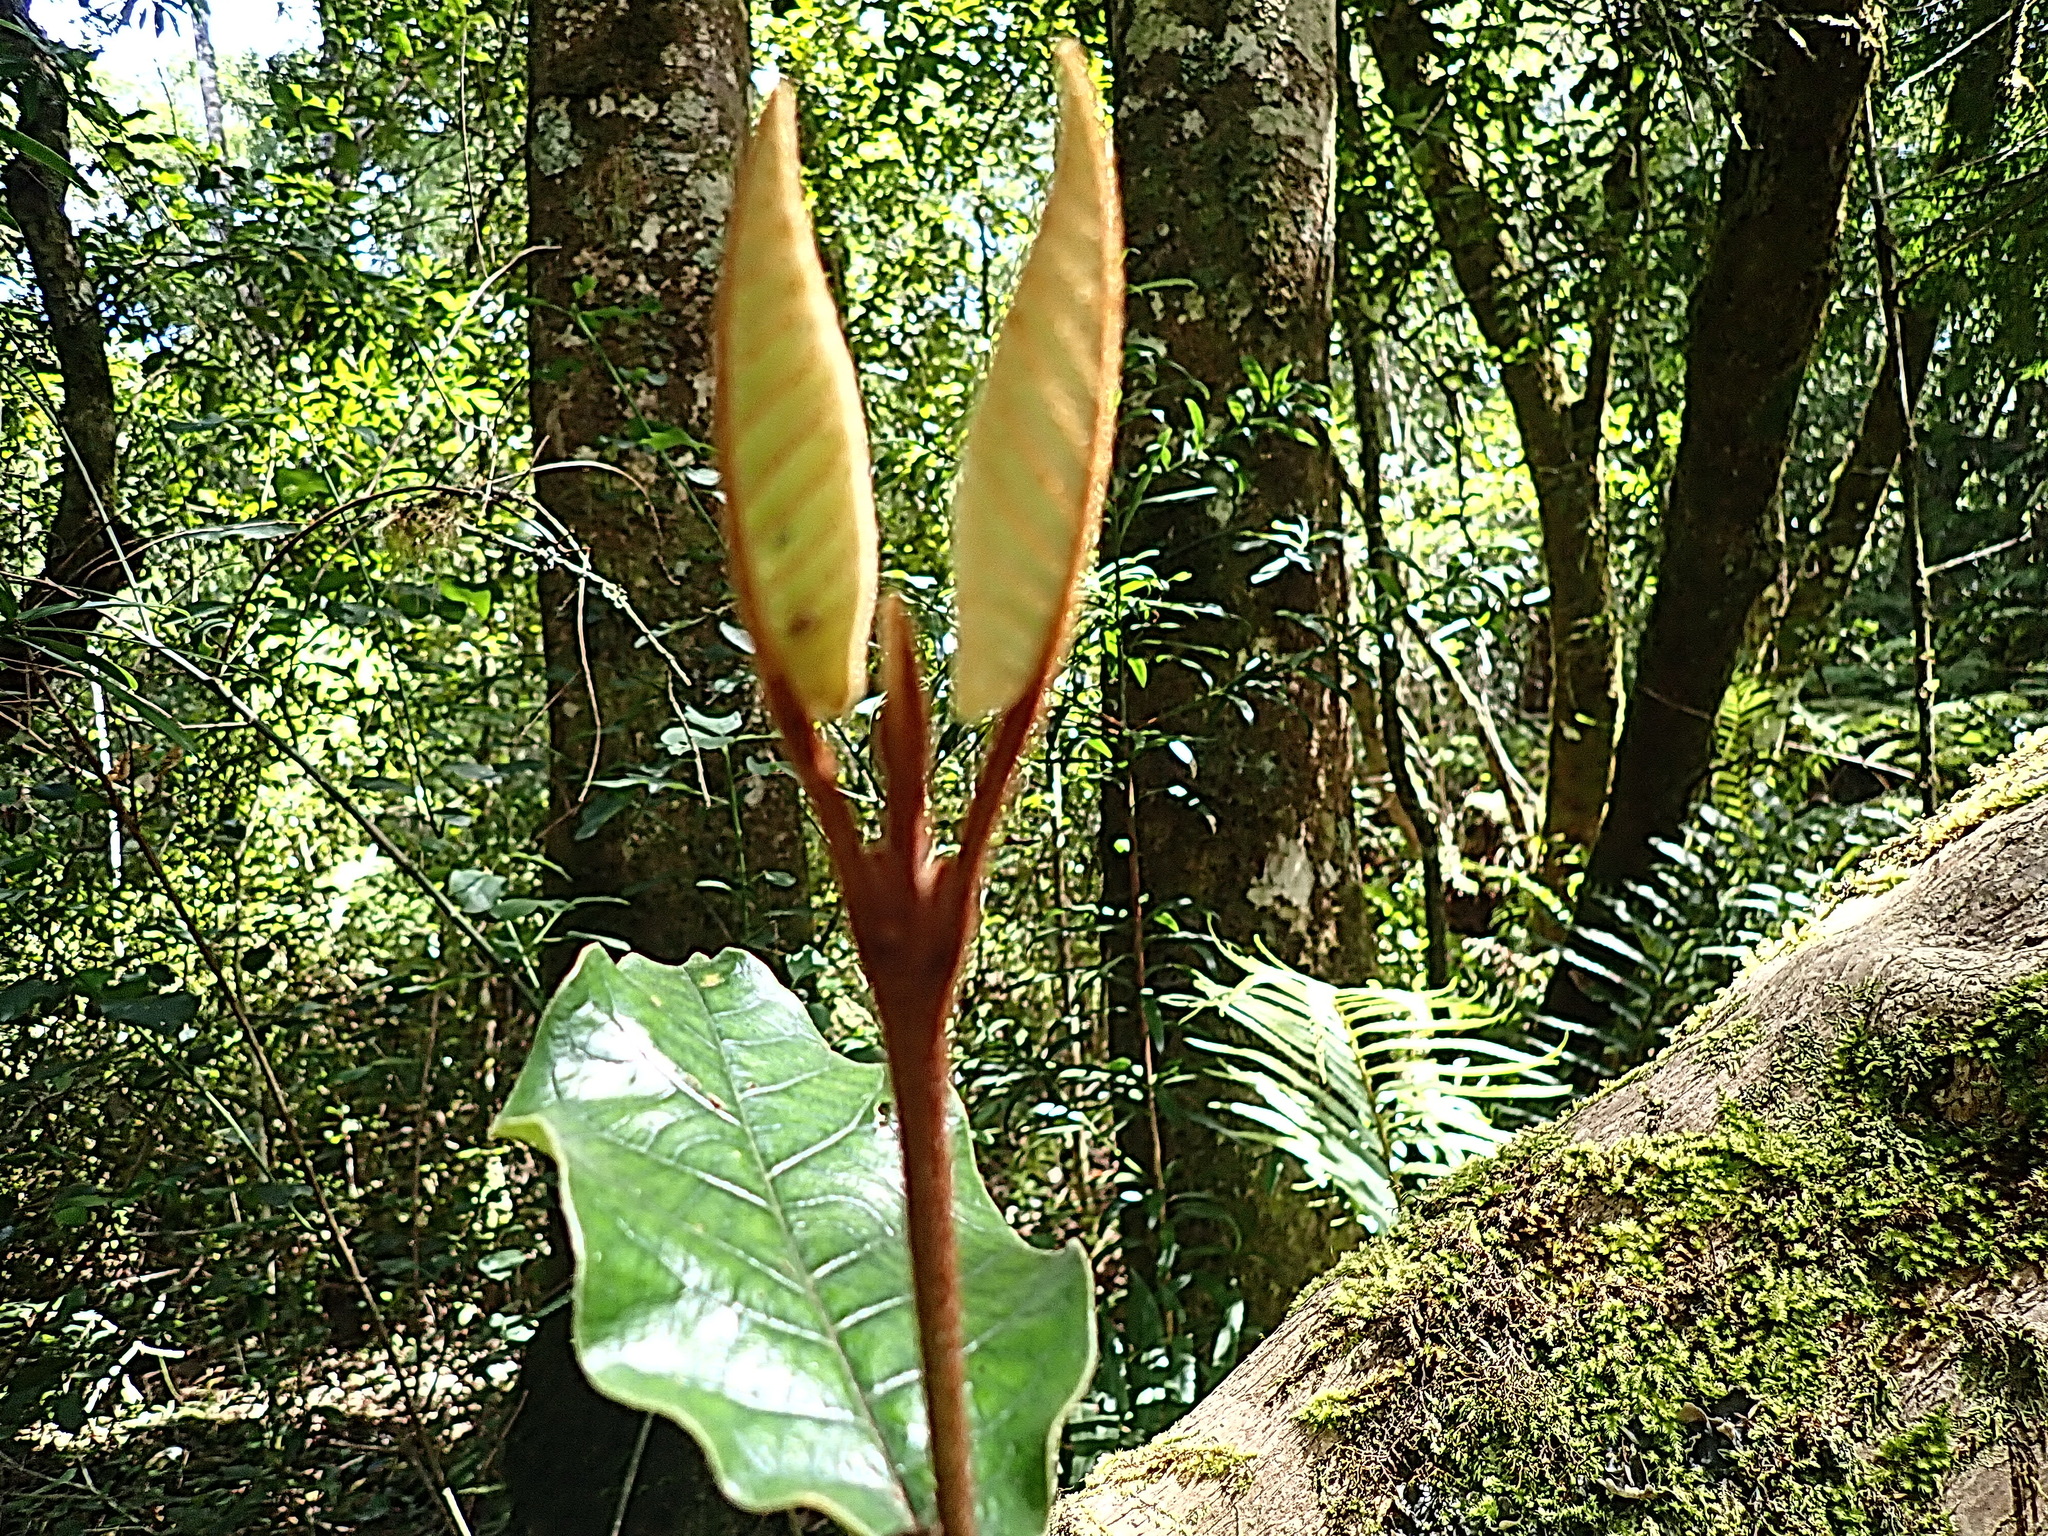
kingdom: Plantae
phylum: Tracheophyta
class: Magnoliopsida
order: Saxifragales
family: Hamamelidaceae
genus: Trichocladus
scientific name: Trichocladus crinitus
